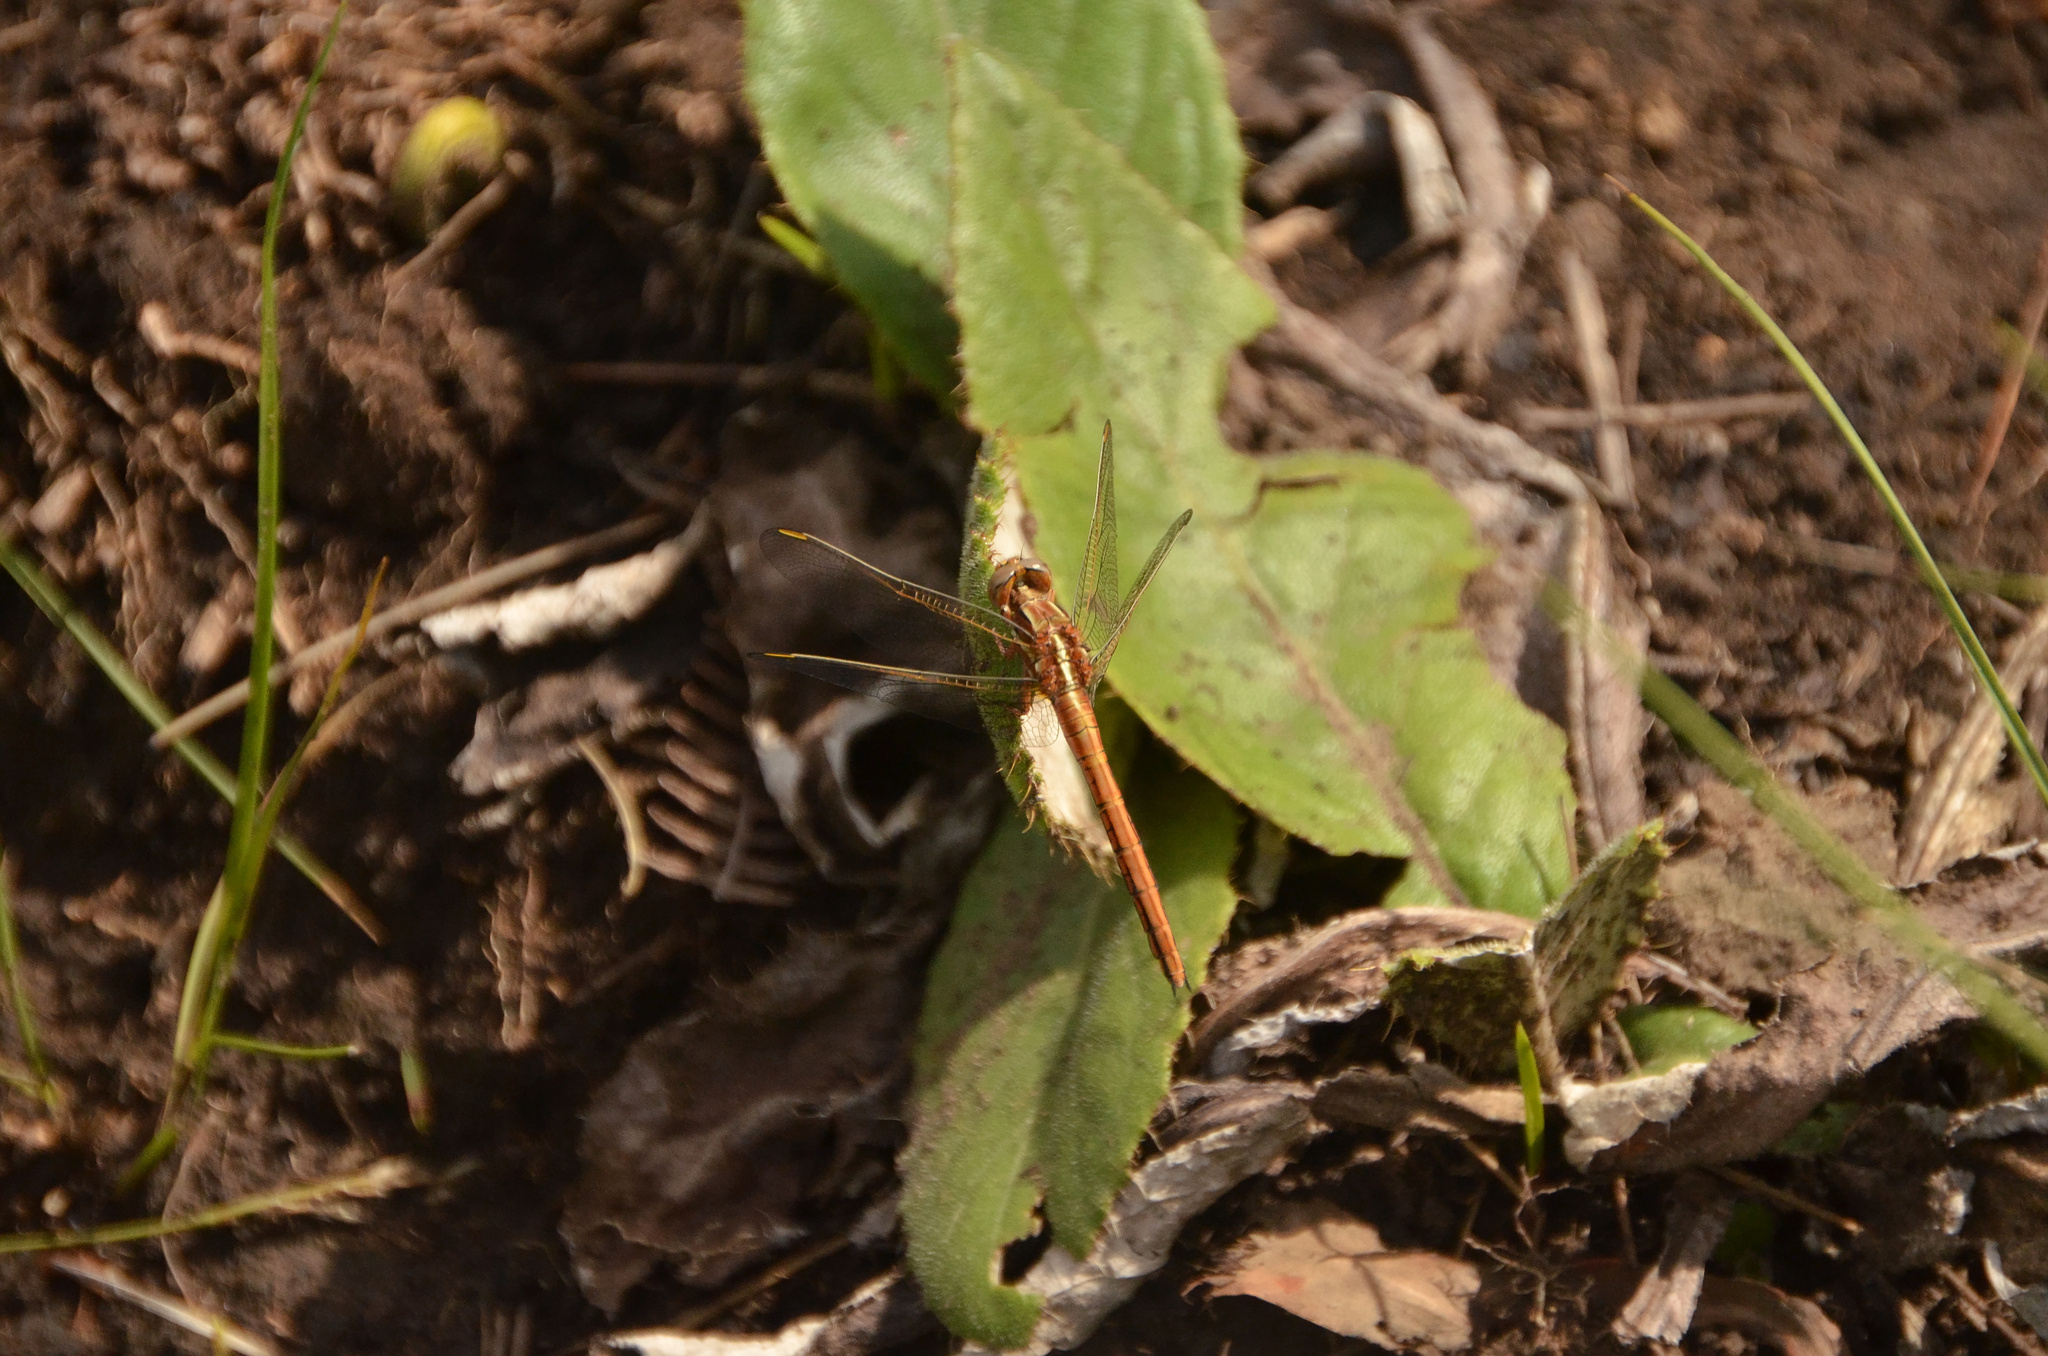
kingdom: Animalia
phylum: Arthropoda
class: Insecta
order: Odonata
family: Libellulidae
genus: Orthetrum
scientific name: Orthetrum caffrum
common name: Two-striped skimmer
